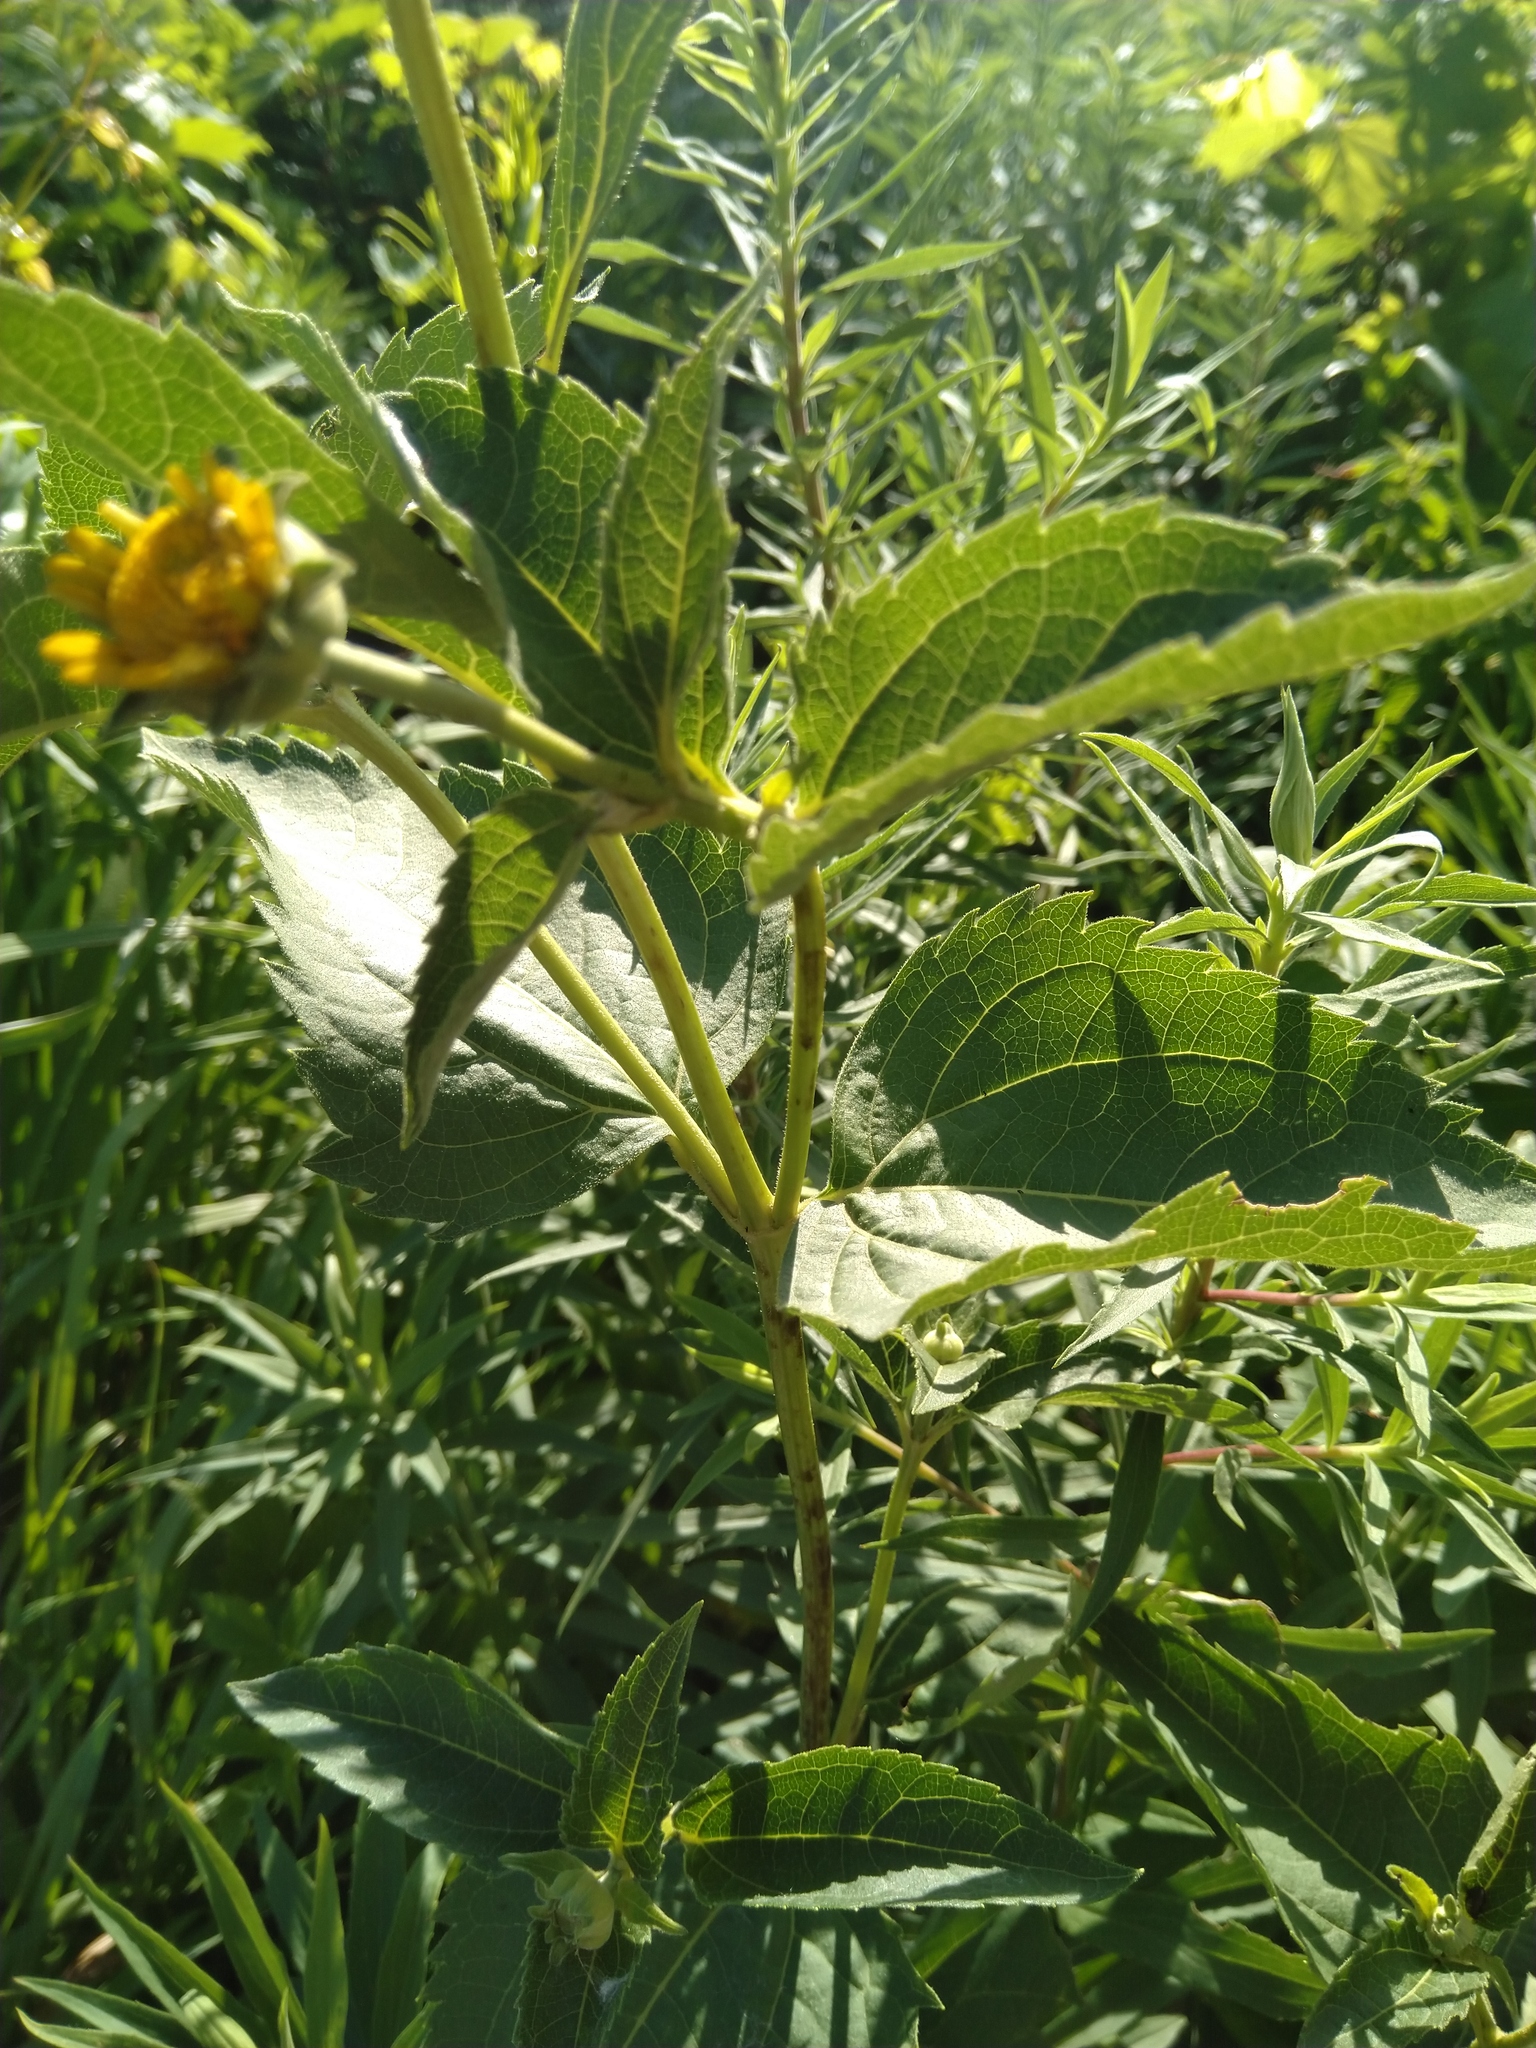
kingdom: Plantae
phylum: Tracheophyta
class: Magnoliopsida
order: Asterales
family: Asteraceae
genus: Heliopsis
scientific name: Heliopsis helianthoides
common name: False sunflower
